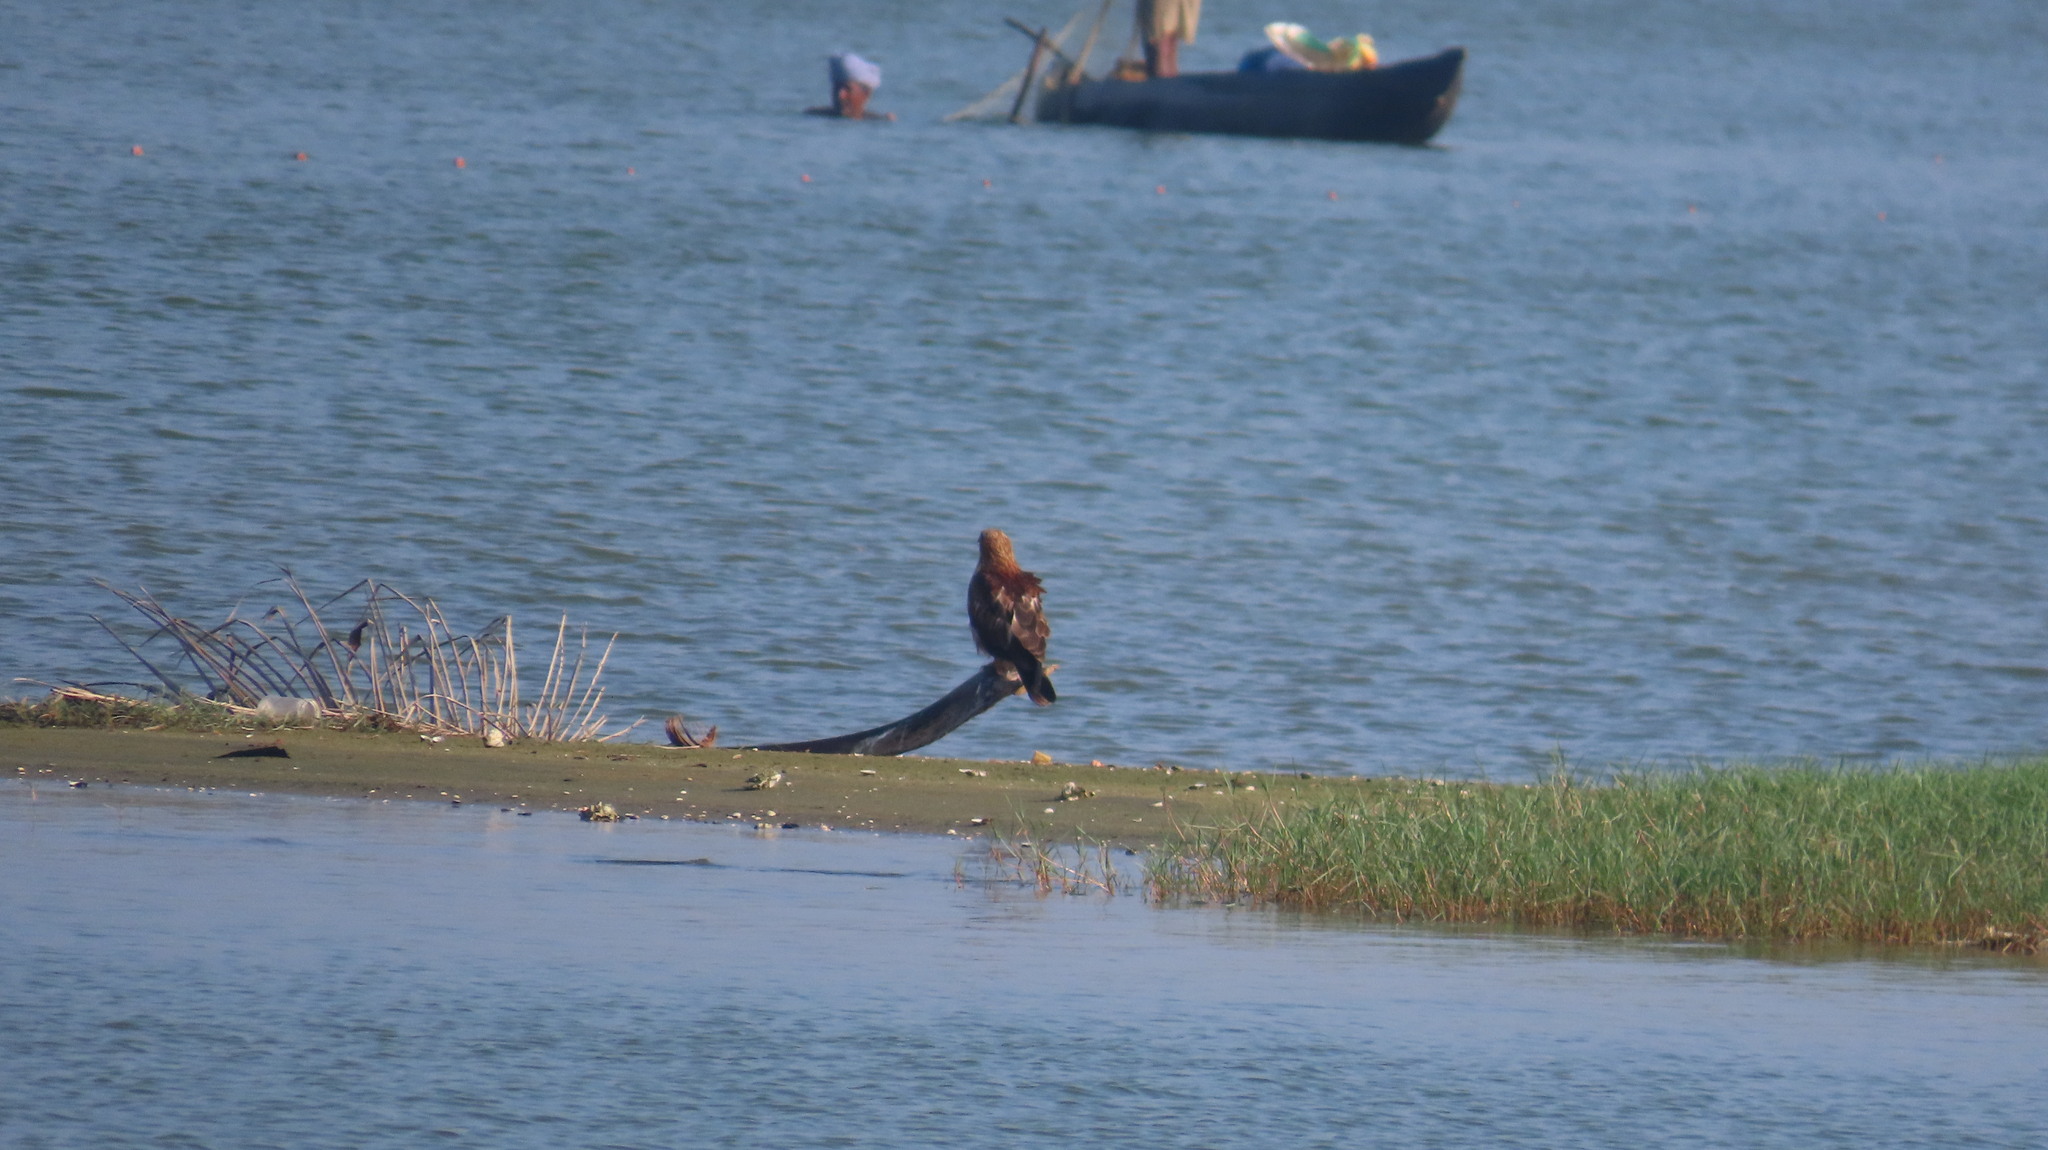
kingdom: Animalia
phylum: Chordata
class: Aves
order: Accipitriformes
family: Accipitridae
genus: Haliastur
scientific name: Haliastur indus
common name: Brahminy kite
